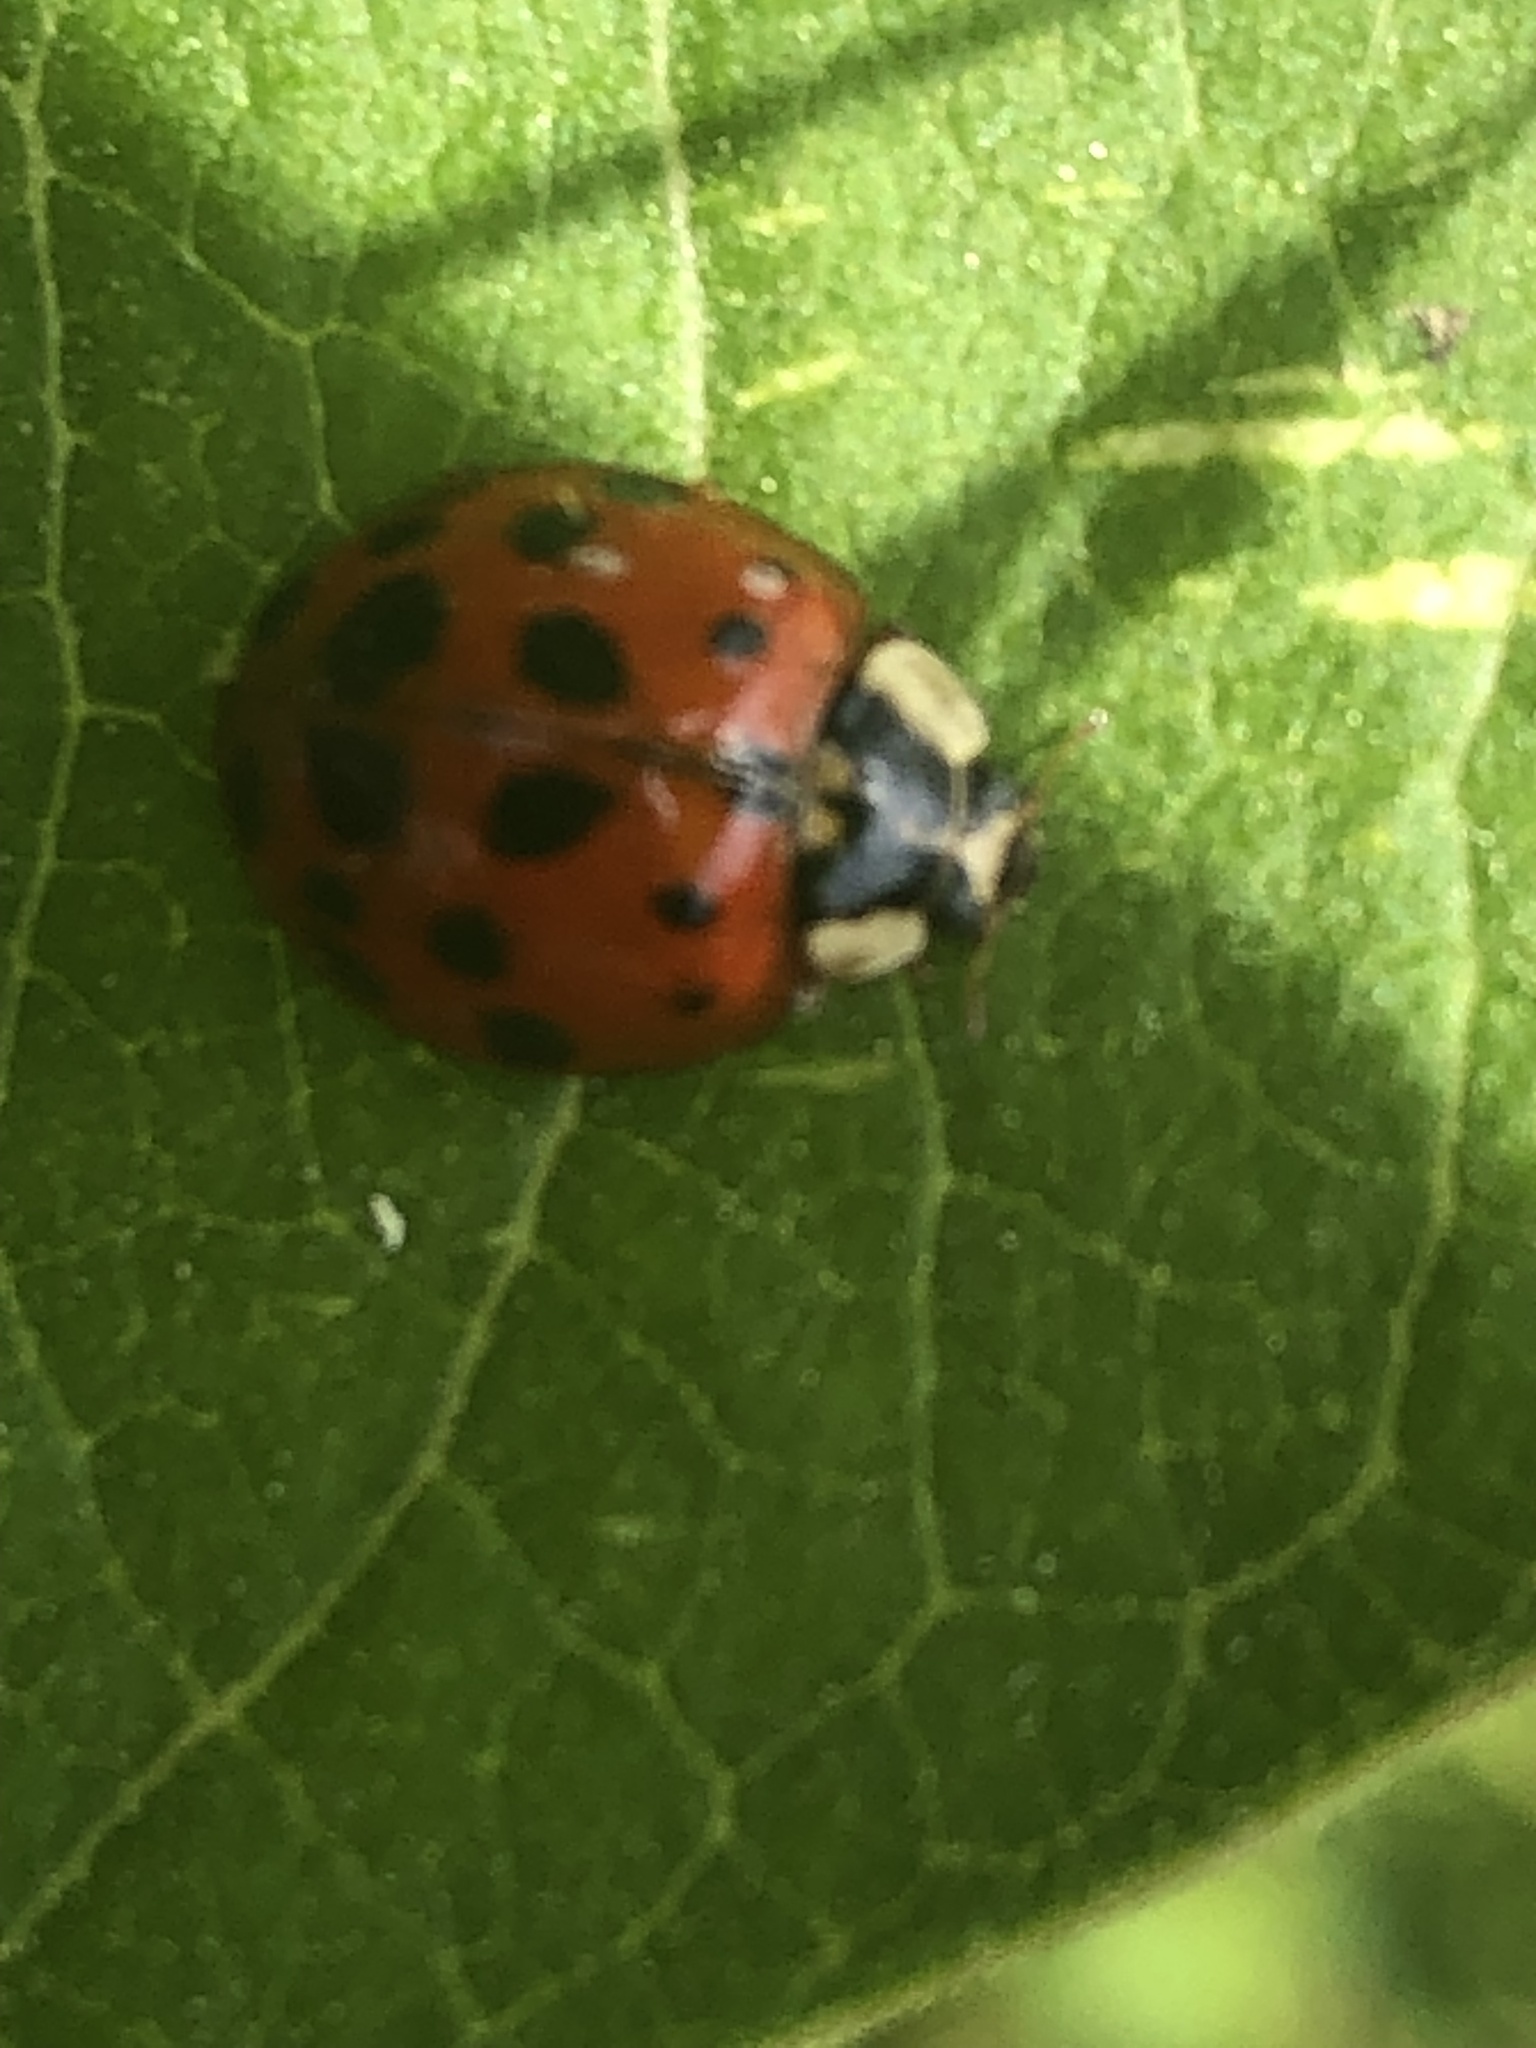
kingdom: Animalia
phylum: Arthropoda
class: Insecta
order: Coleoptera
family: Coccinellidae
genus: Harmonia
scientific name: Harmonia axyridis
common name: Harlequin ladybird
